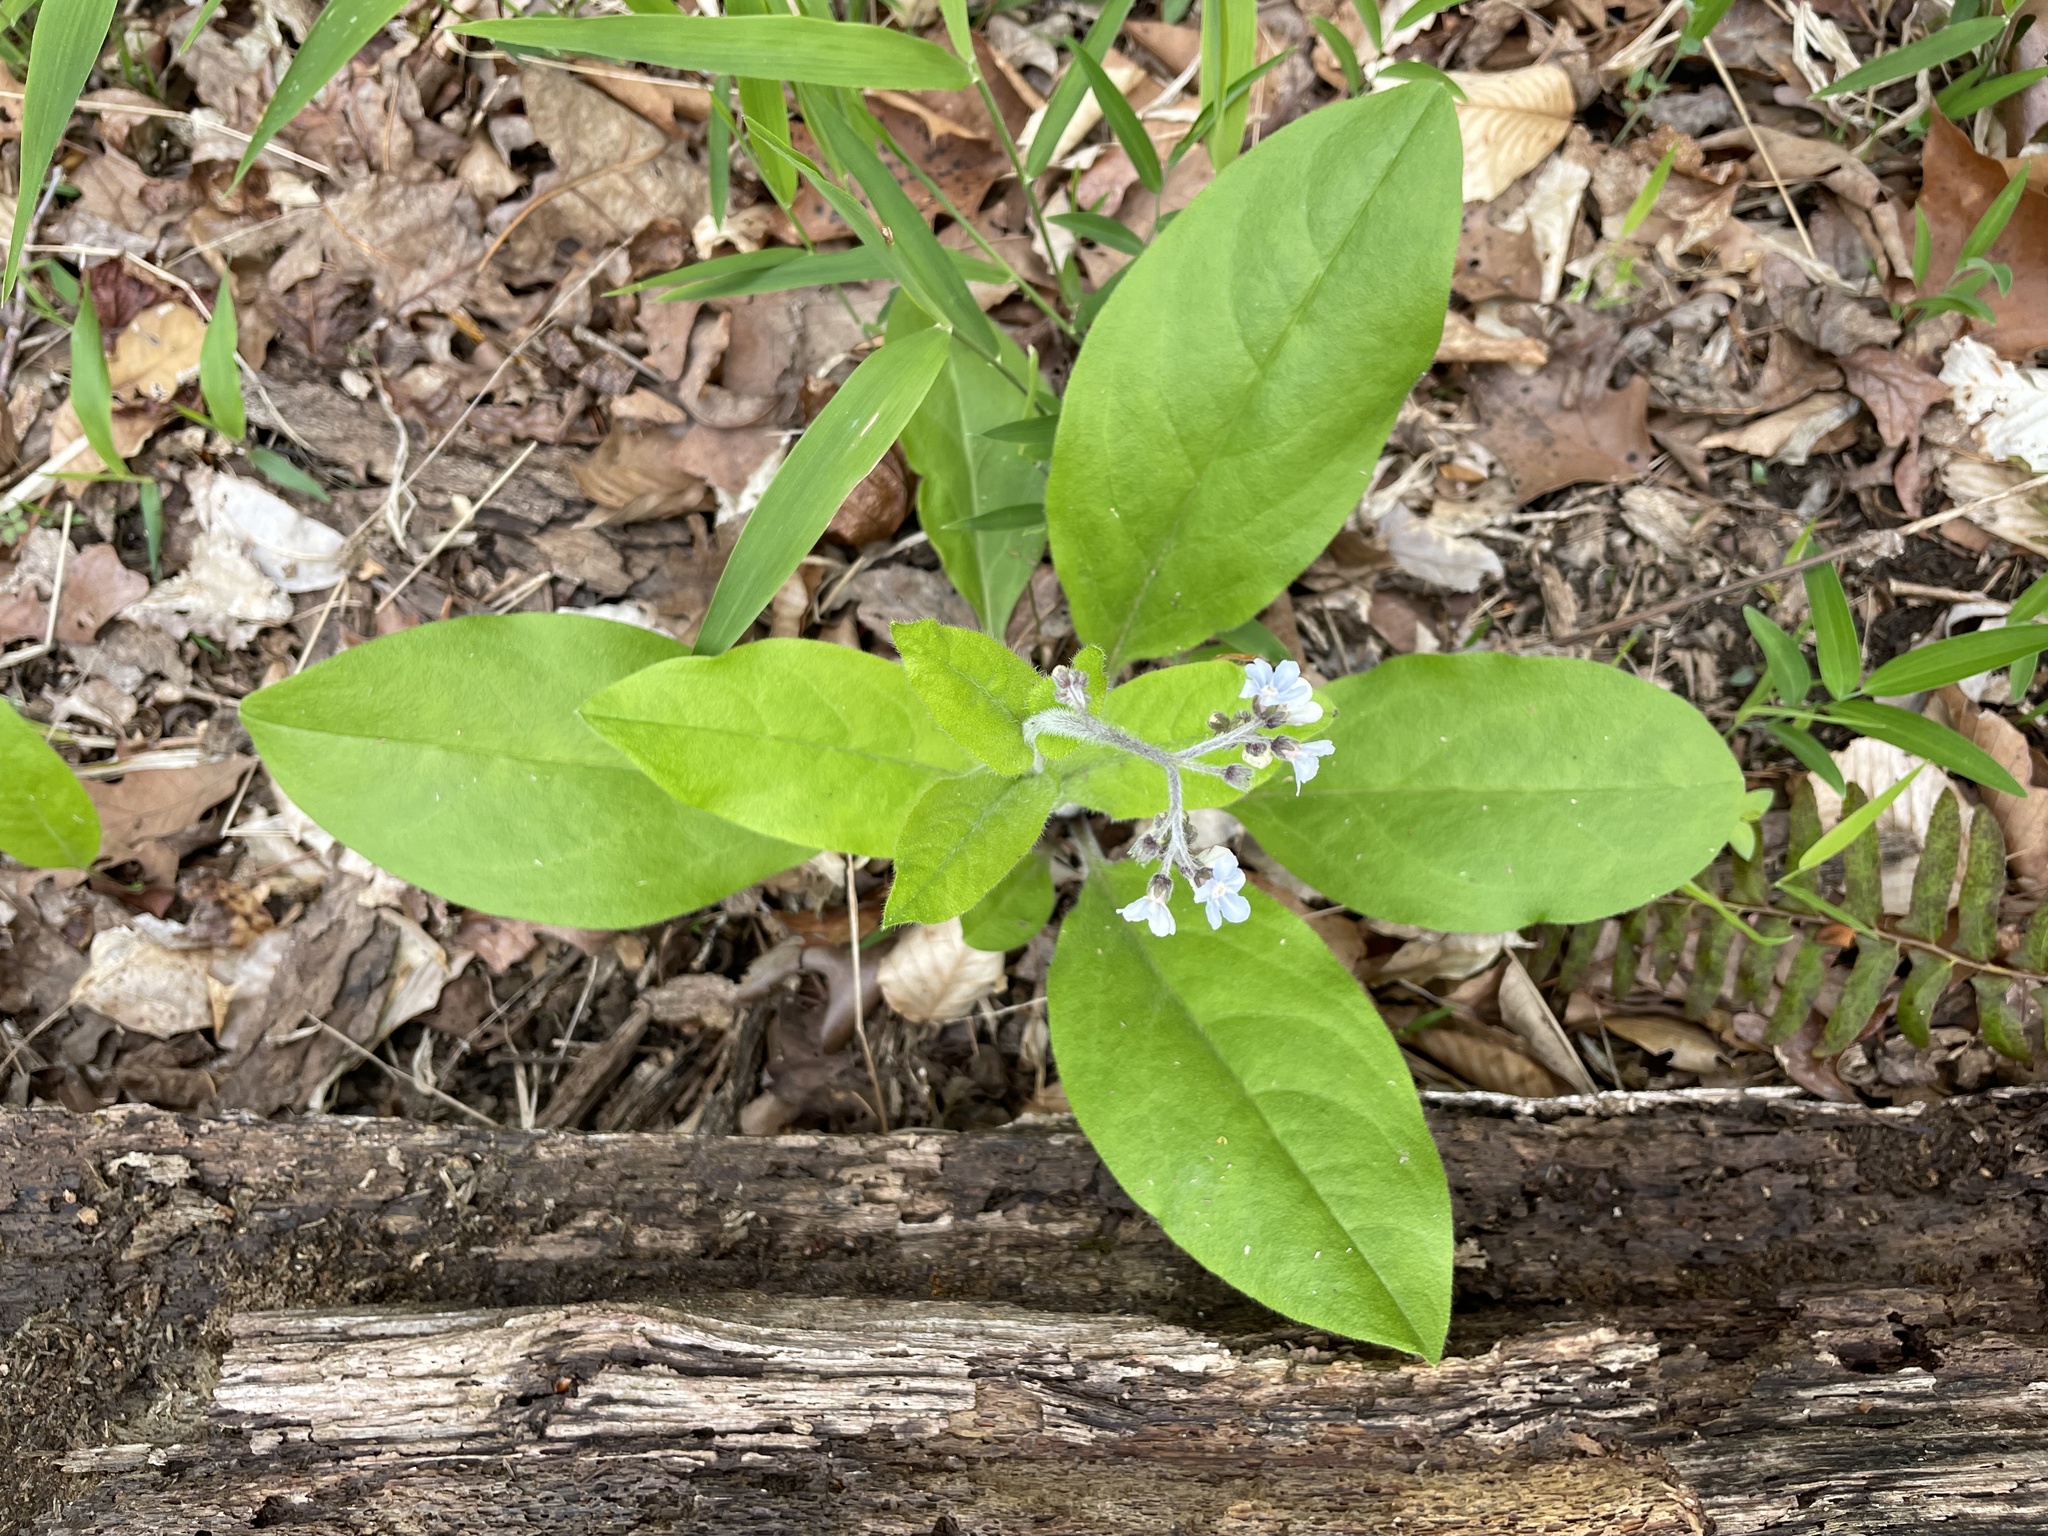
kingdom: Plantae
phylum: Tracheophyta
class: Magnoliopsida
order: Boraginales
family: Boraginaceae
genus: Andersonglossum
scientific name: Andersonglossum virginianum
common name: Wild comfrey
